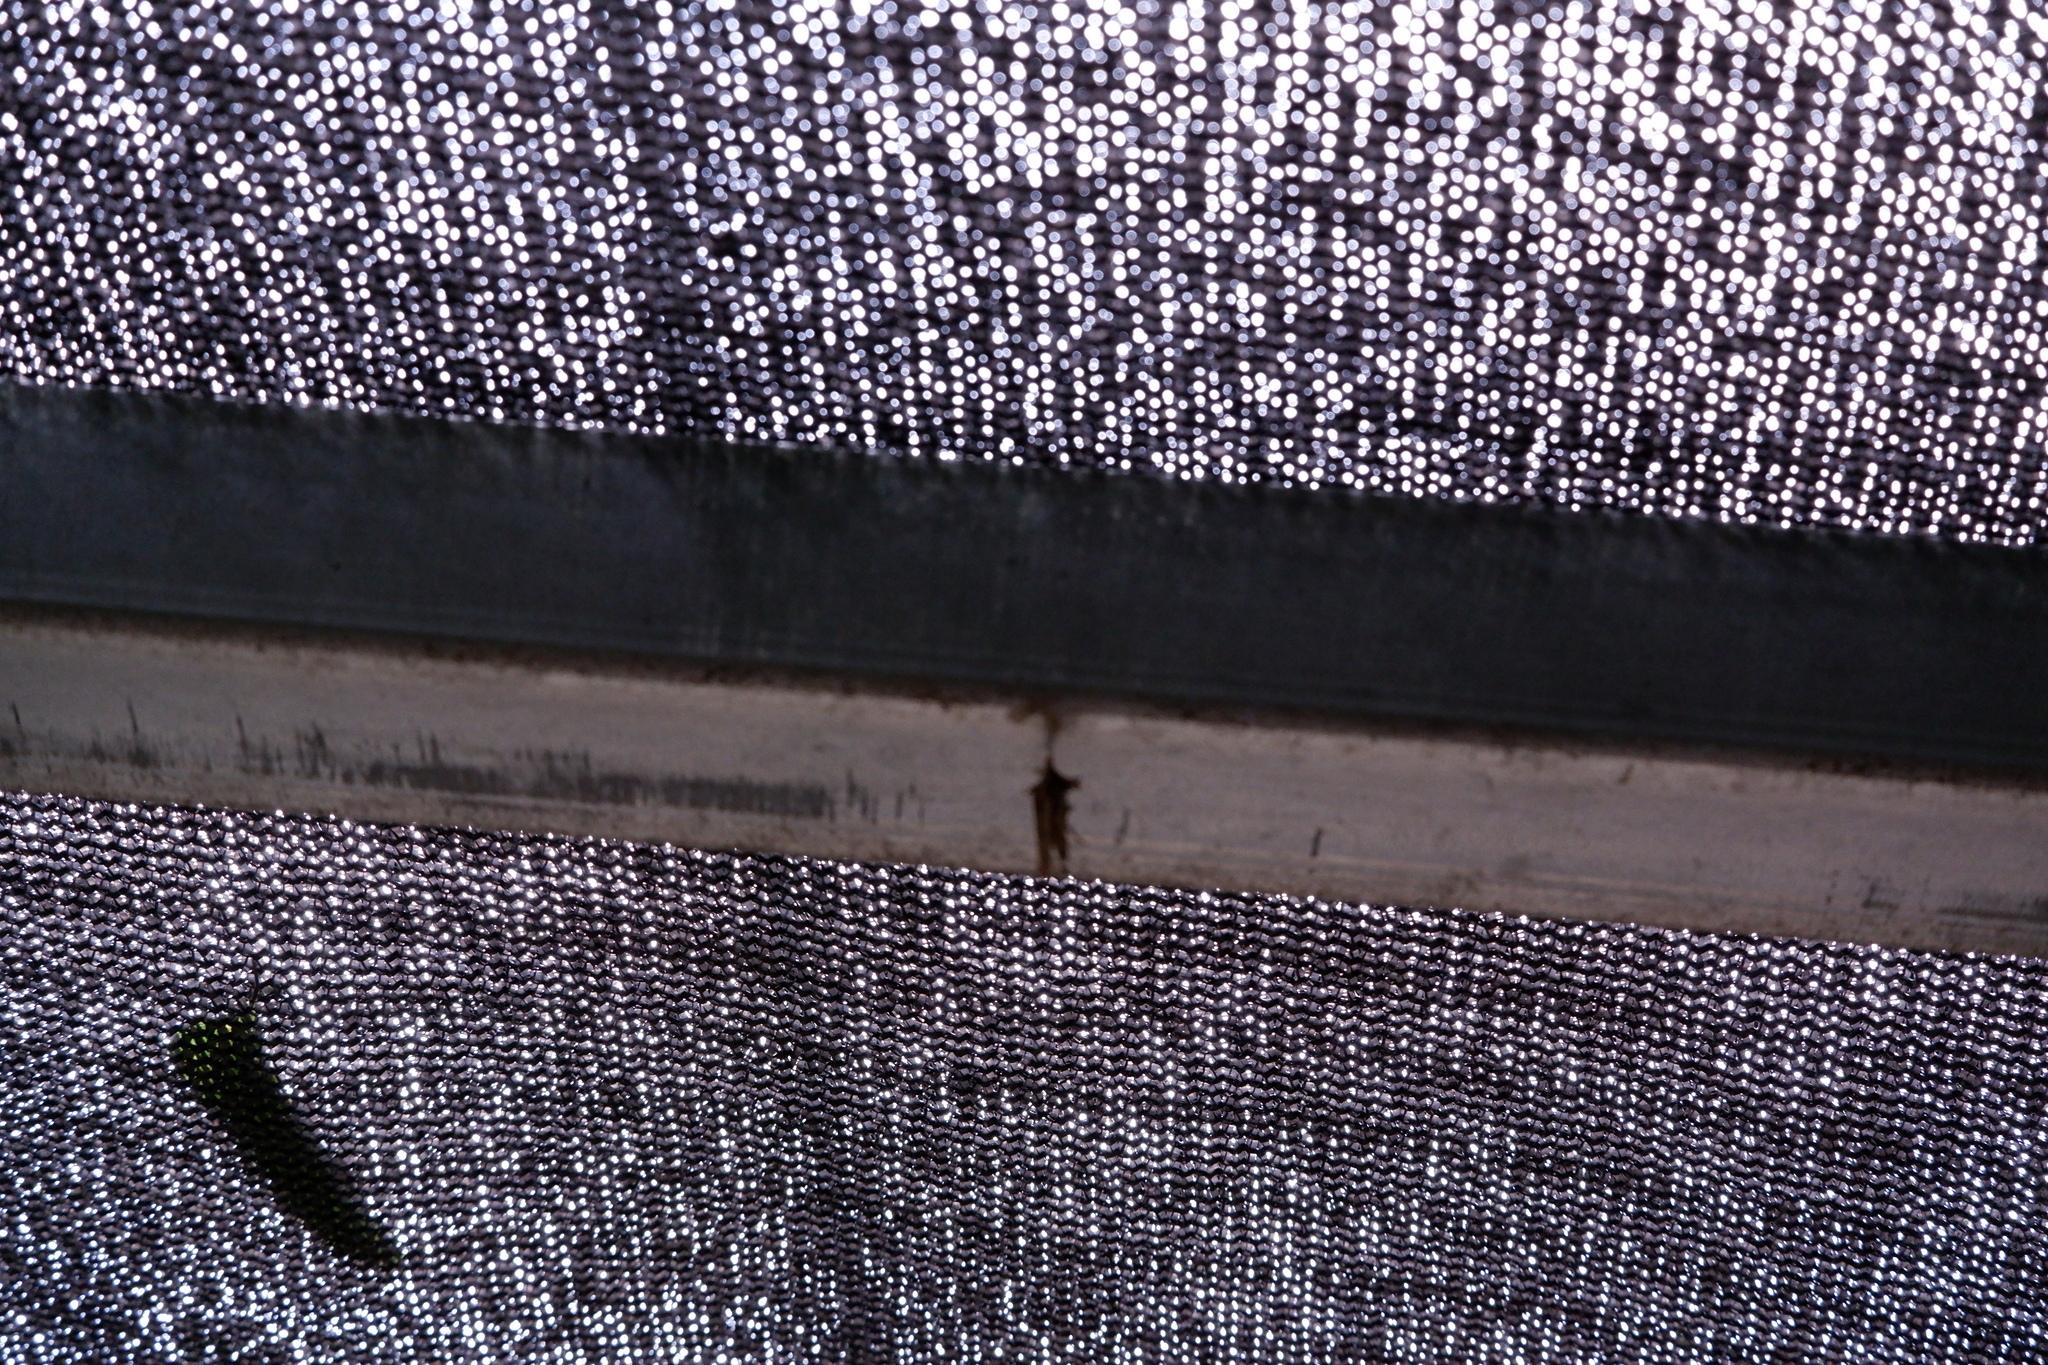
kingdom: Animalia
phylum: Arthropoda
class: Insecta
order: Lepidoptera
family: Psychidae
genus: Psyche
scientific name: Psyche casta
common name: Common sweep
